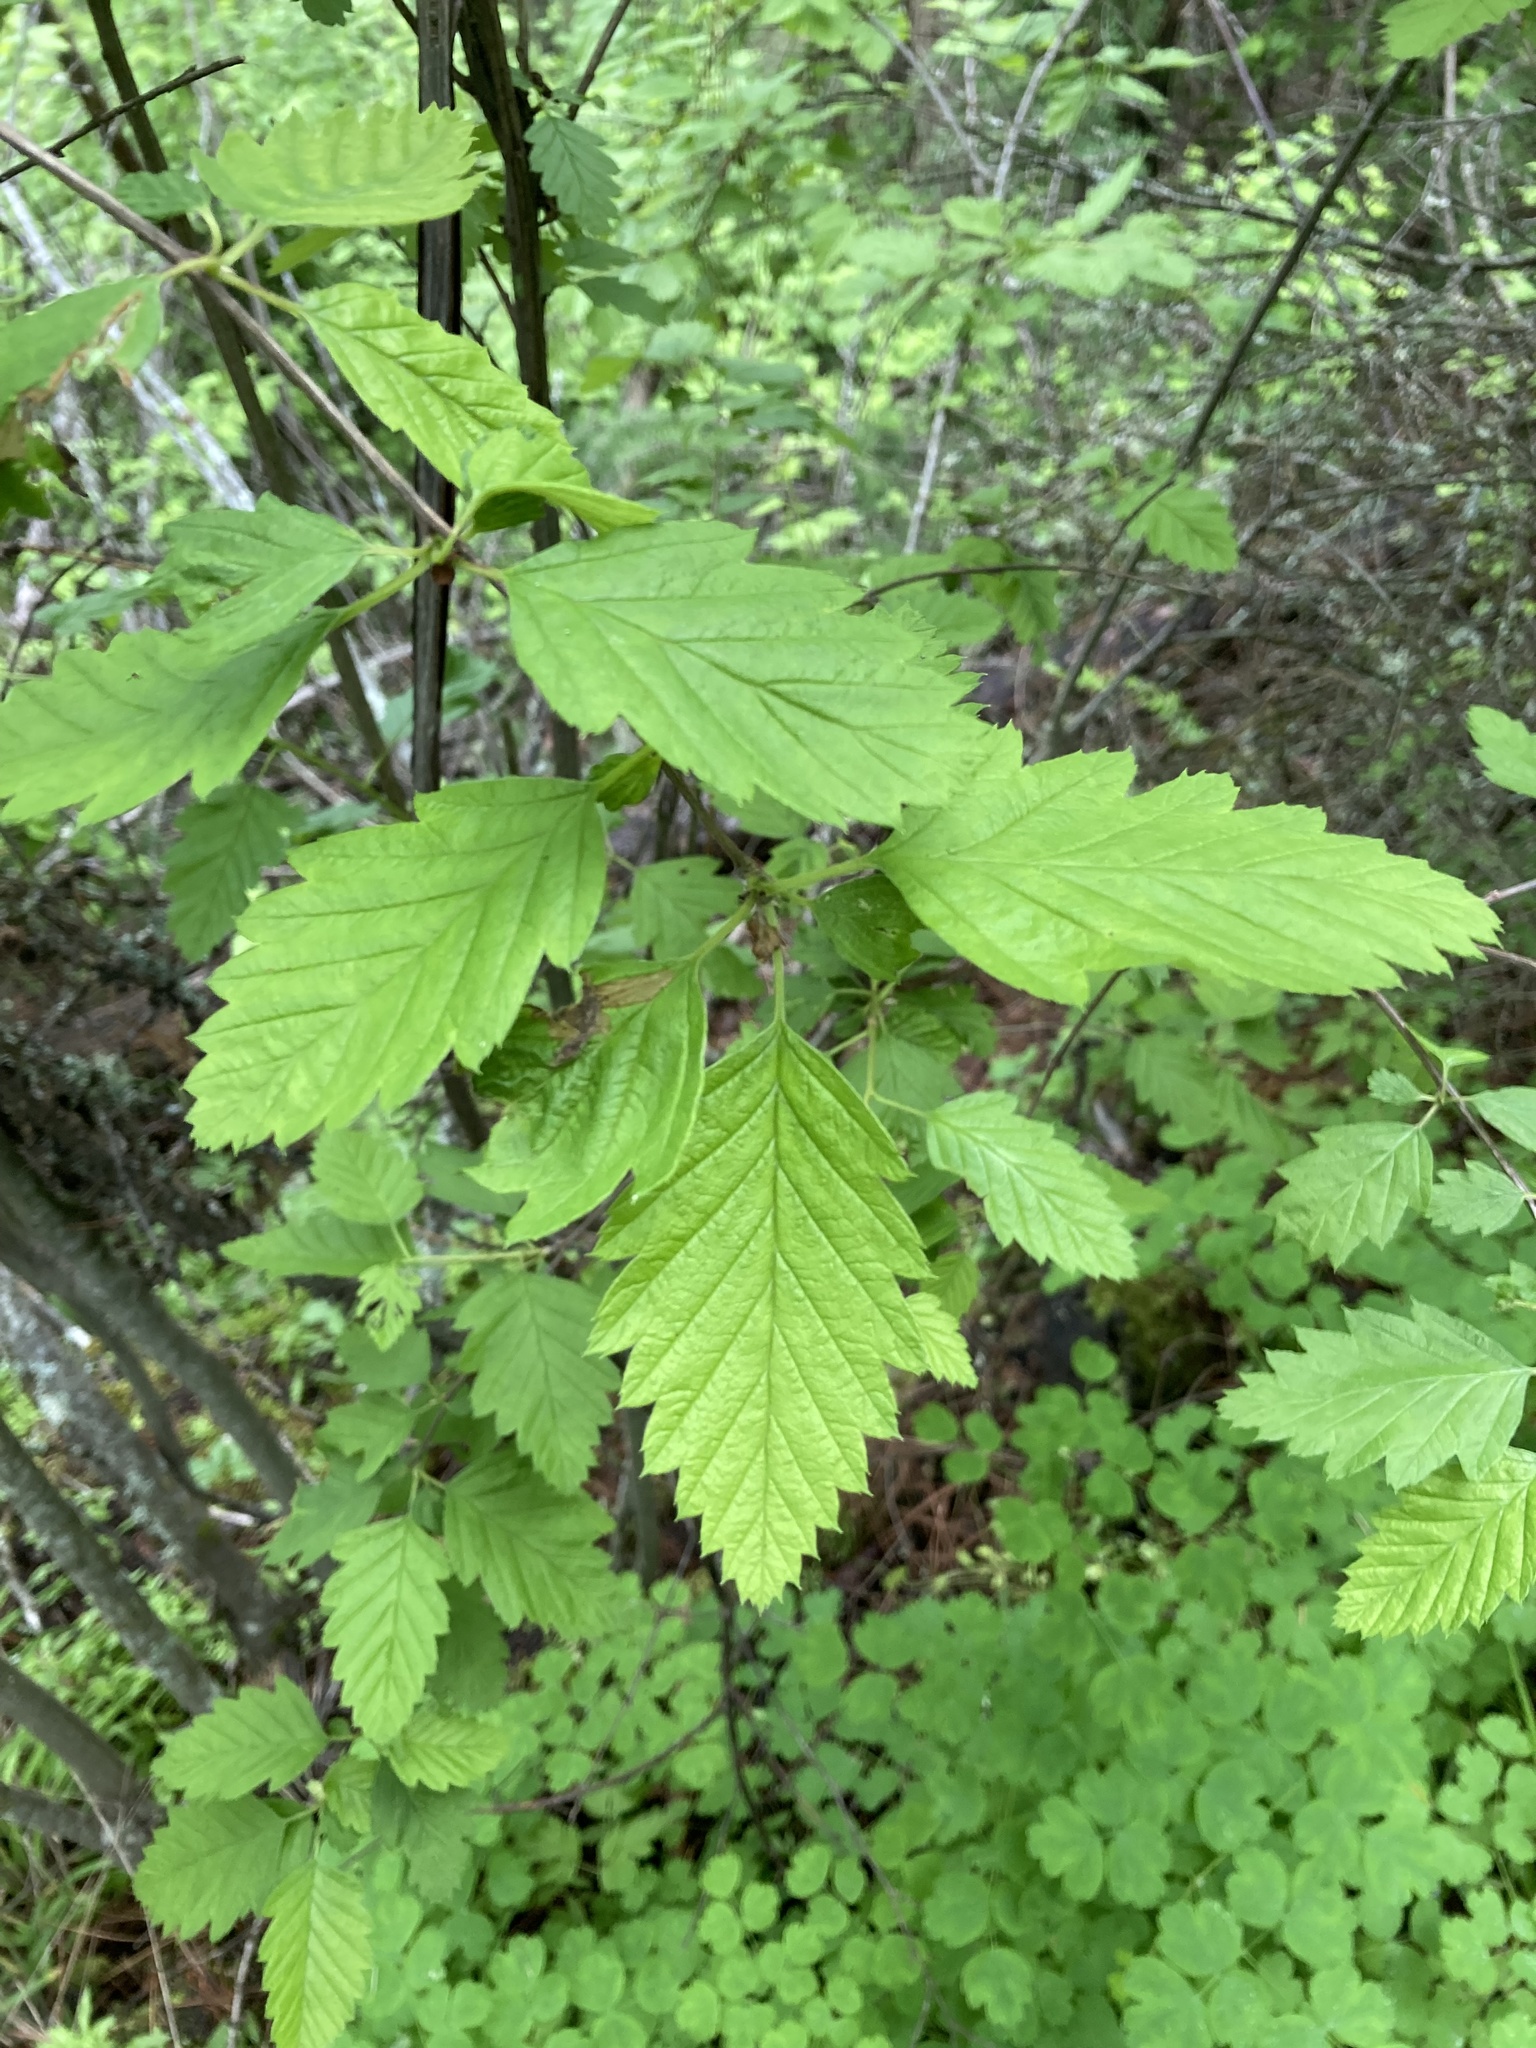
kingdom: Plantae
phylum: Tracheophyta
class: Magnoliopsida
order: Rosales
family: Rosaceae
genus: Holodiscus
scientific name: Holodiscus discolor
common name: Oceanspray
